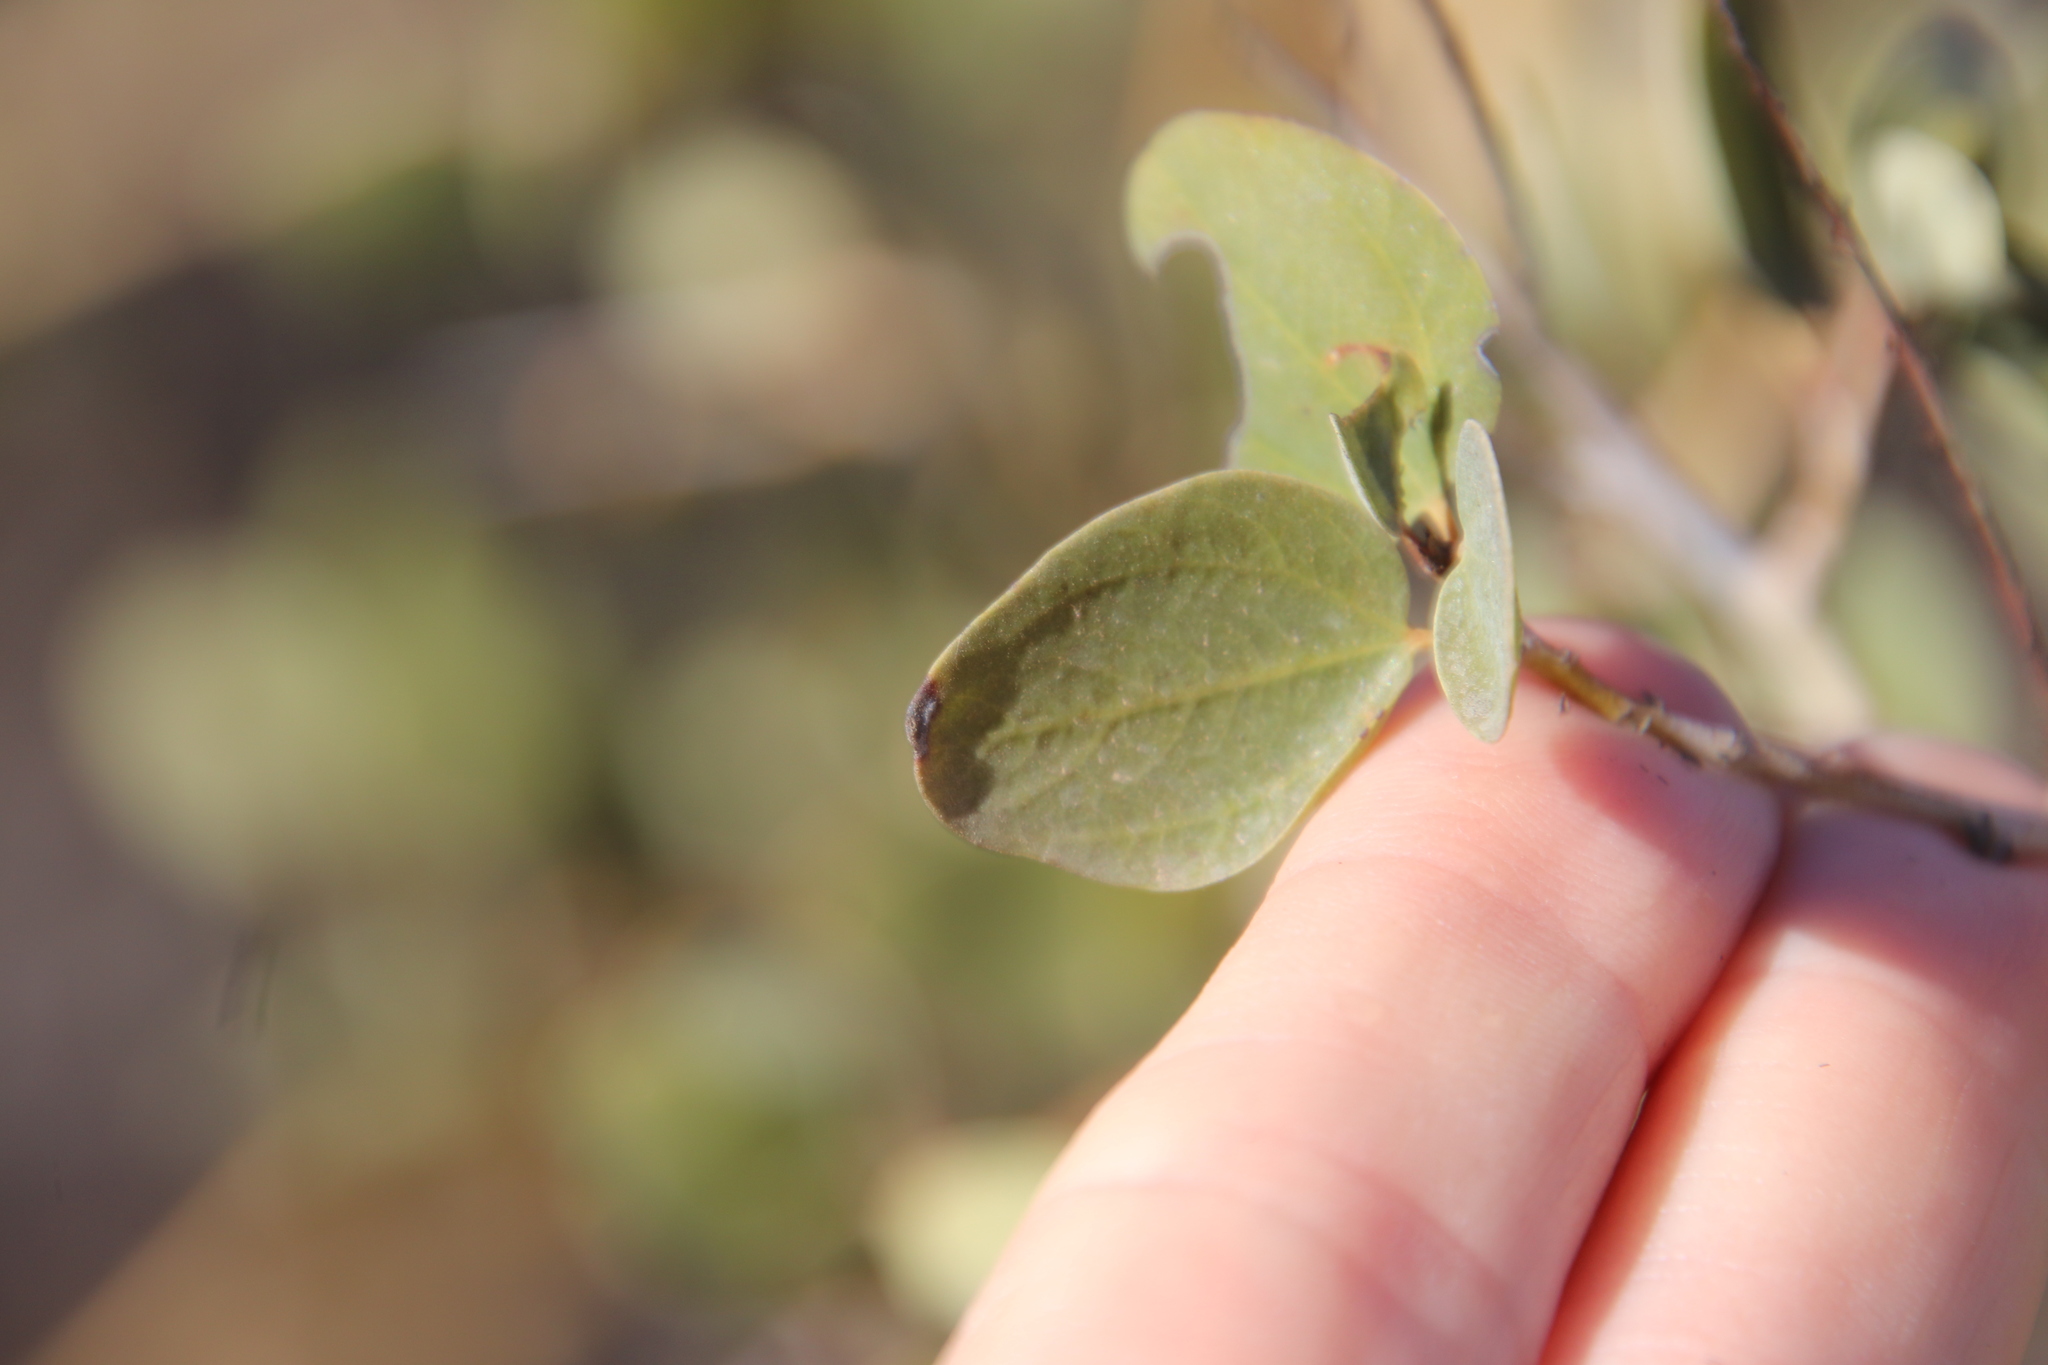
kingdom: Plantae
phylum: Tracheophyta
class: Magnoliopsida
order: Rosales
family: Rhamnaceae
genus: Ceanothus
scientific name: Ceanothus leucodermis
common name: Chaparral whitethorn
